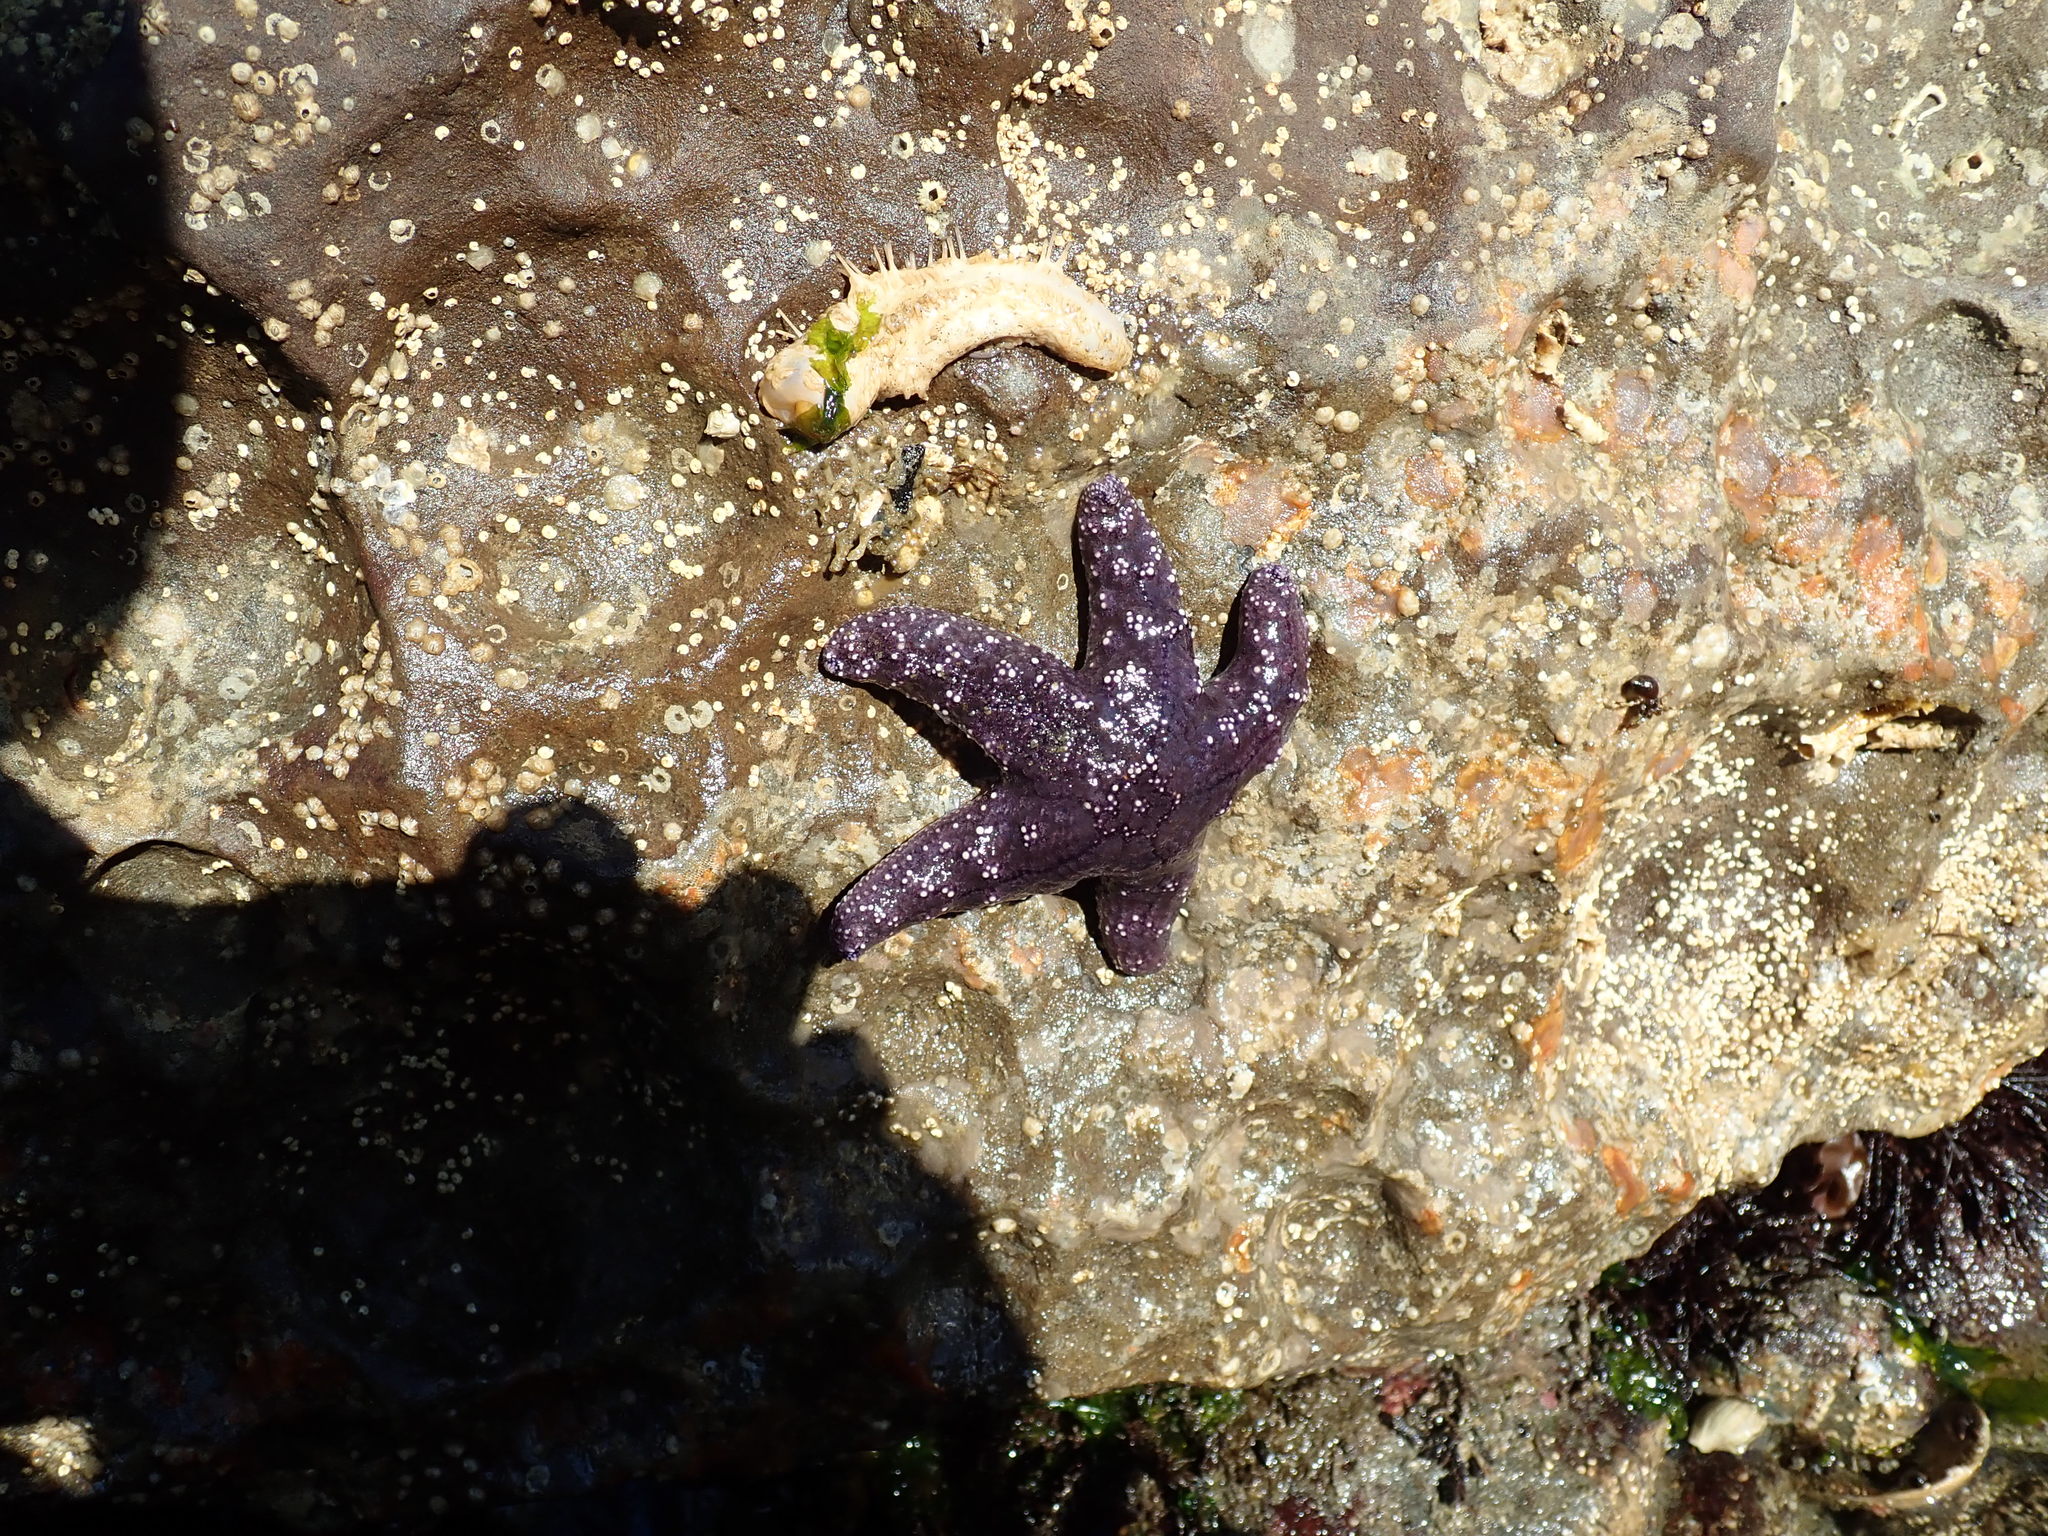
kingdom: Animalia
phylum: Echinodermata
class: Asteroidea
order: Forcipulatida
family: Asteriidae
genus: Pisaster
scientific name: Pisaster ochraceus
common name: Ochre stars
